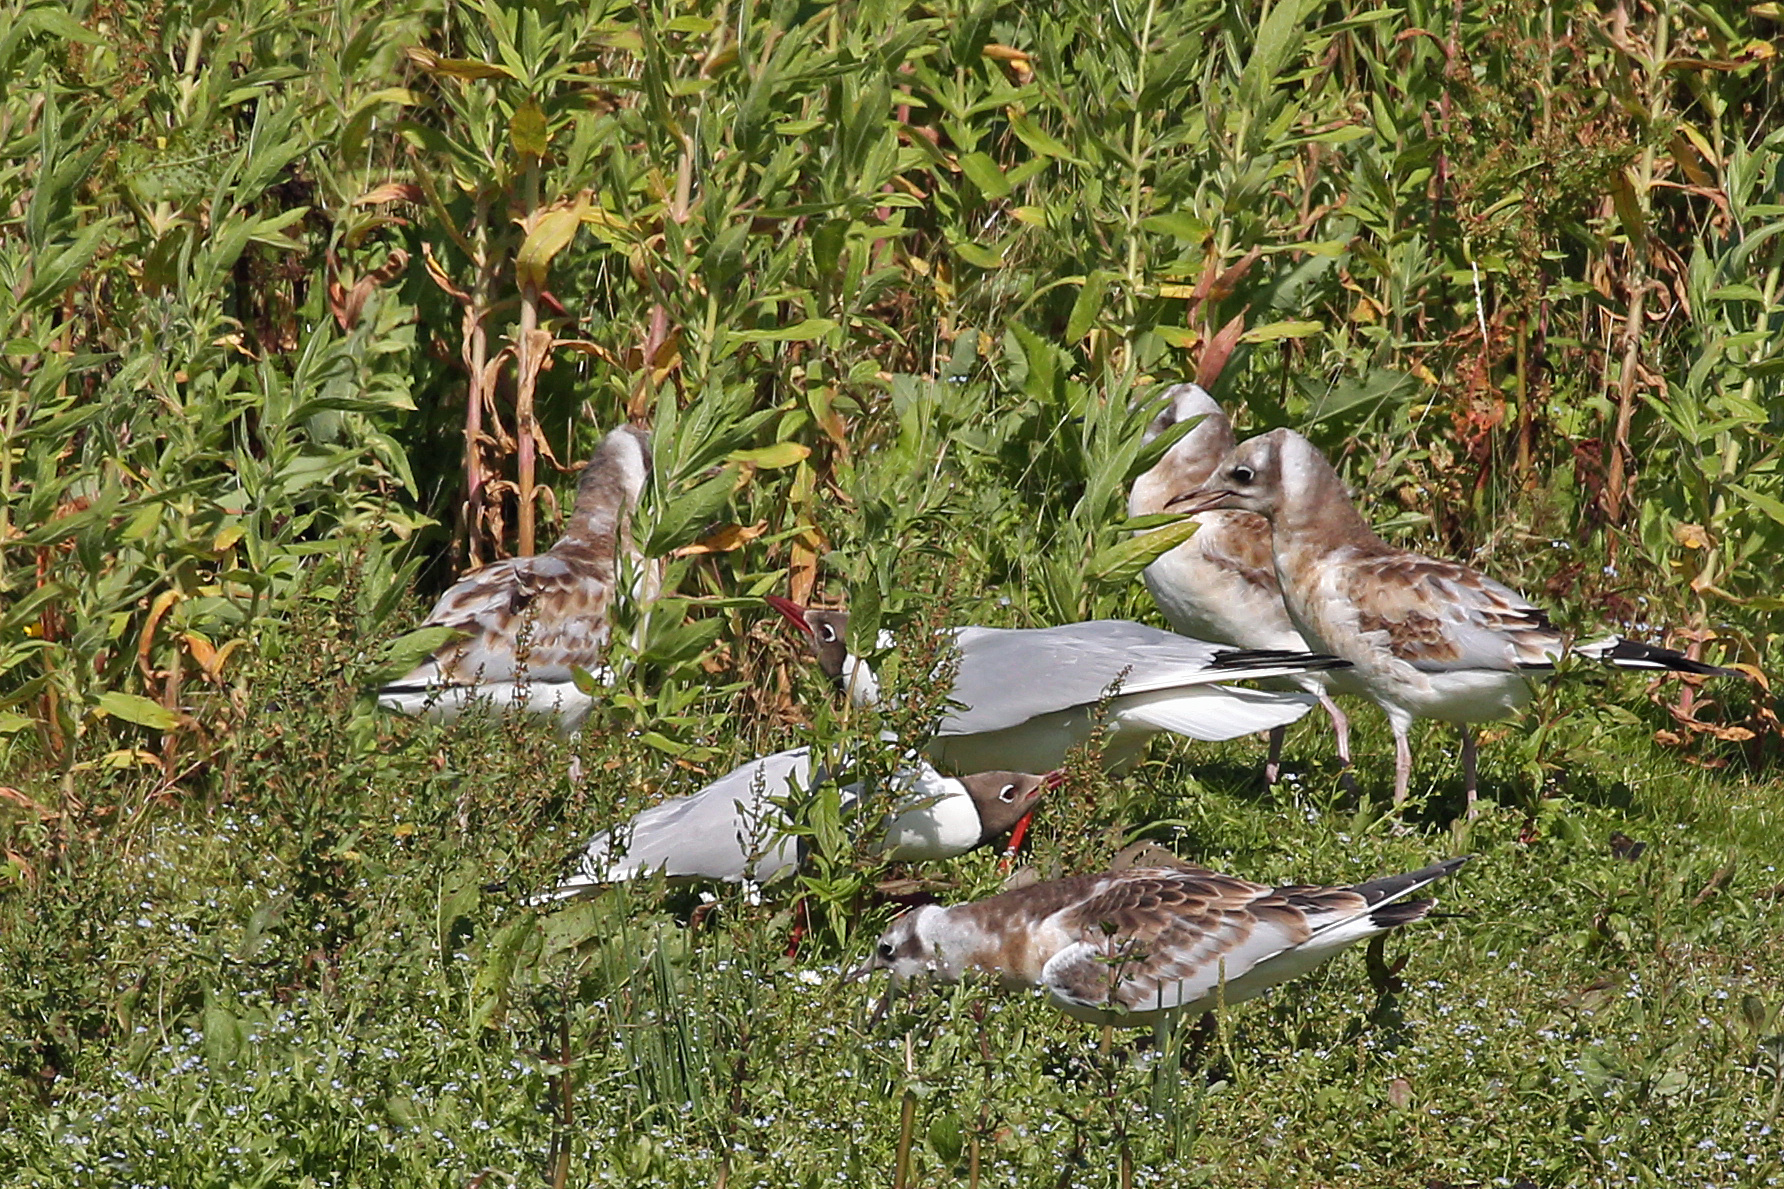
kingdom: Animalia
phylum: Chordata
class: Aves
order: Charadriiformes
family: Laridae
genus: Chroicocephalus
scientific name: Chroicocephalus ridibundus
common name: Black-headed gull
